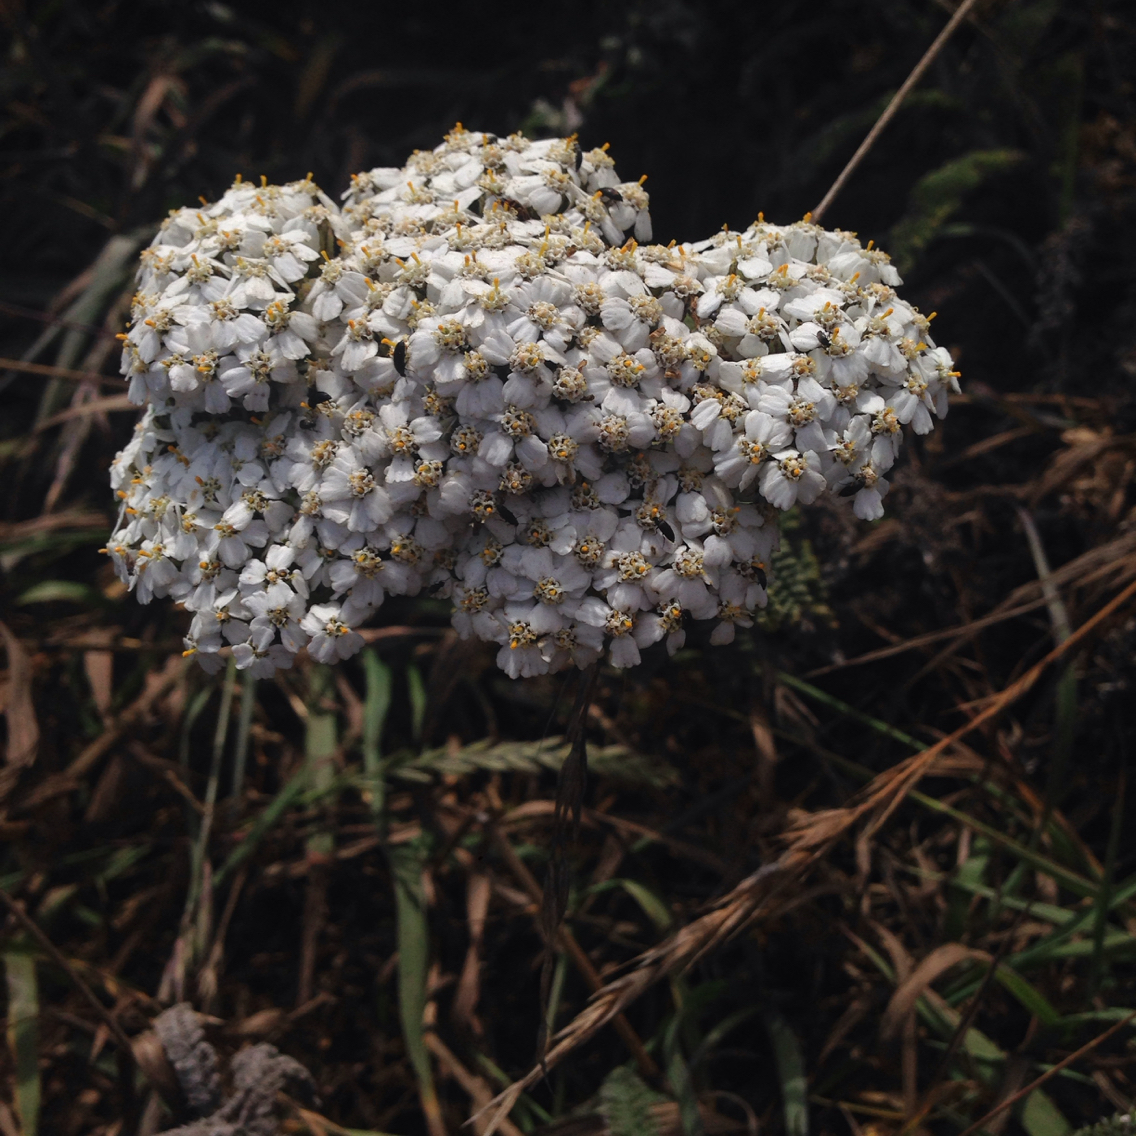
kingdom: Plantae
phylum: Tracheophyta
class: Magnoliopsida
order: Asterales
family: Asteraceae
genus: Achillea
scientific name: Achillea millefolium
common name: Yarrow
